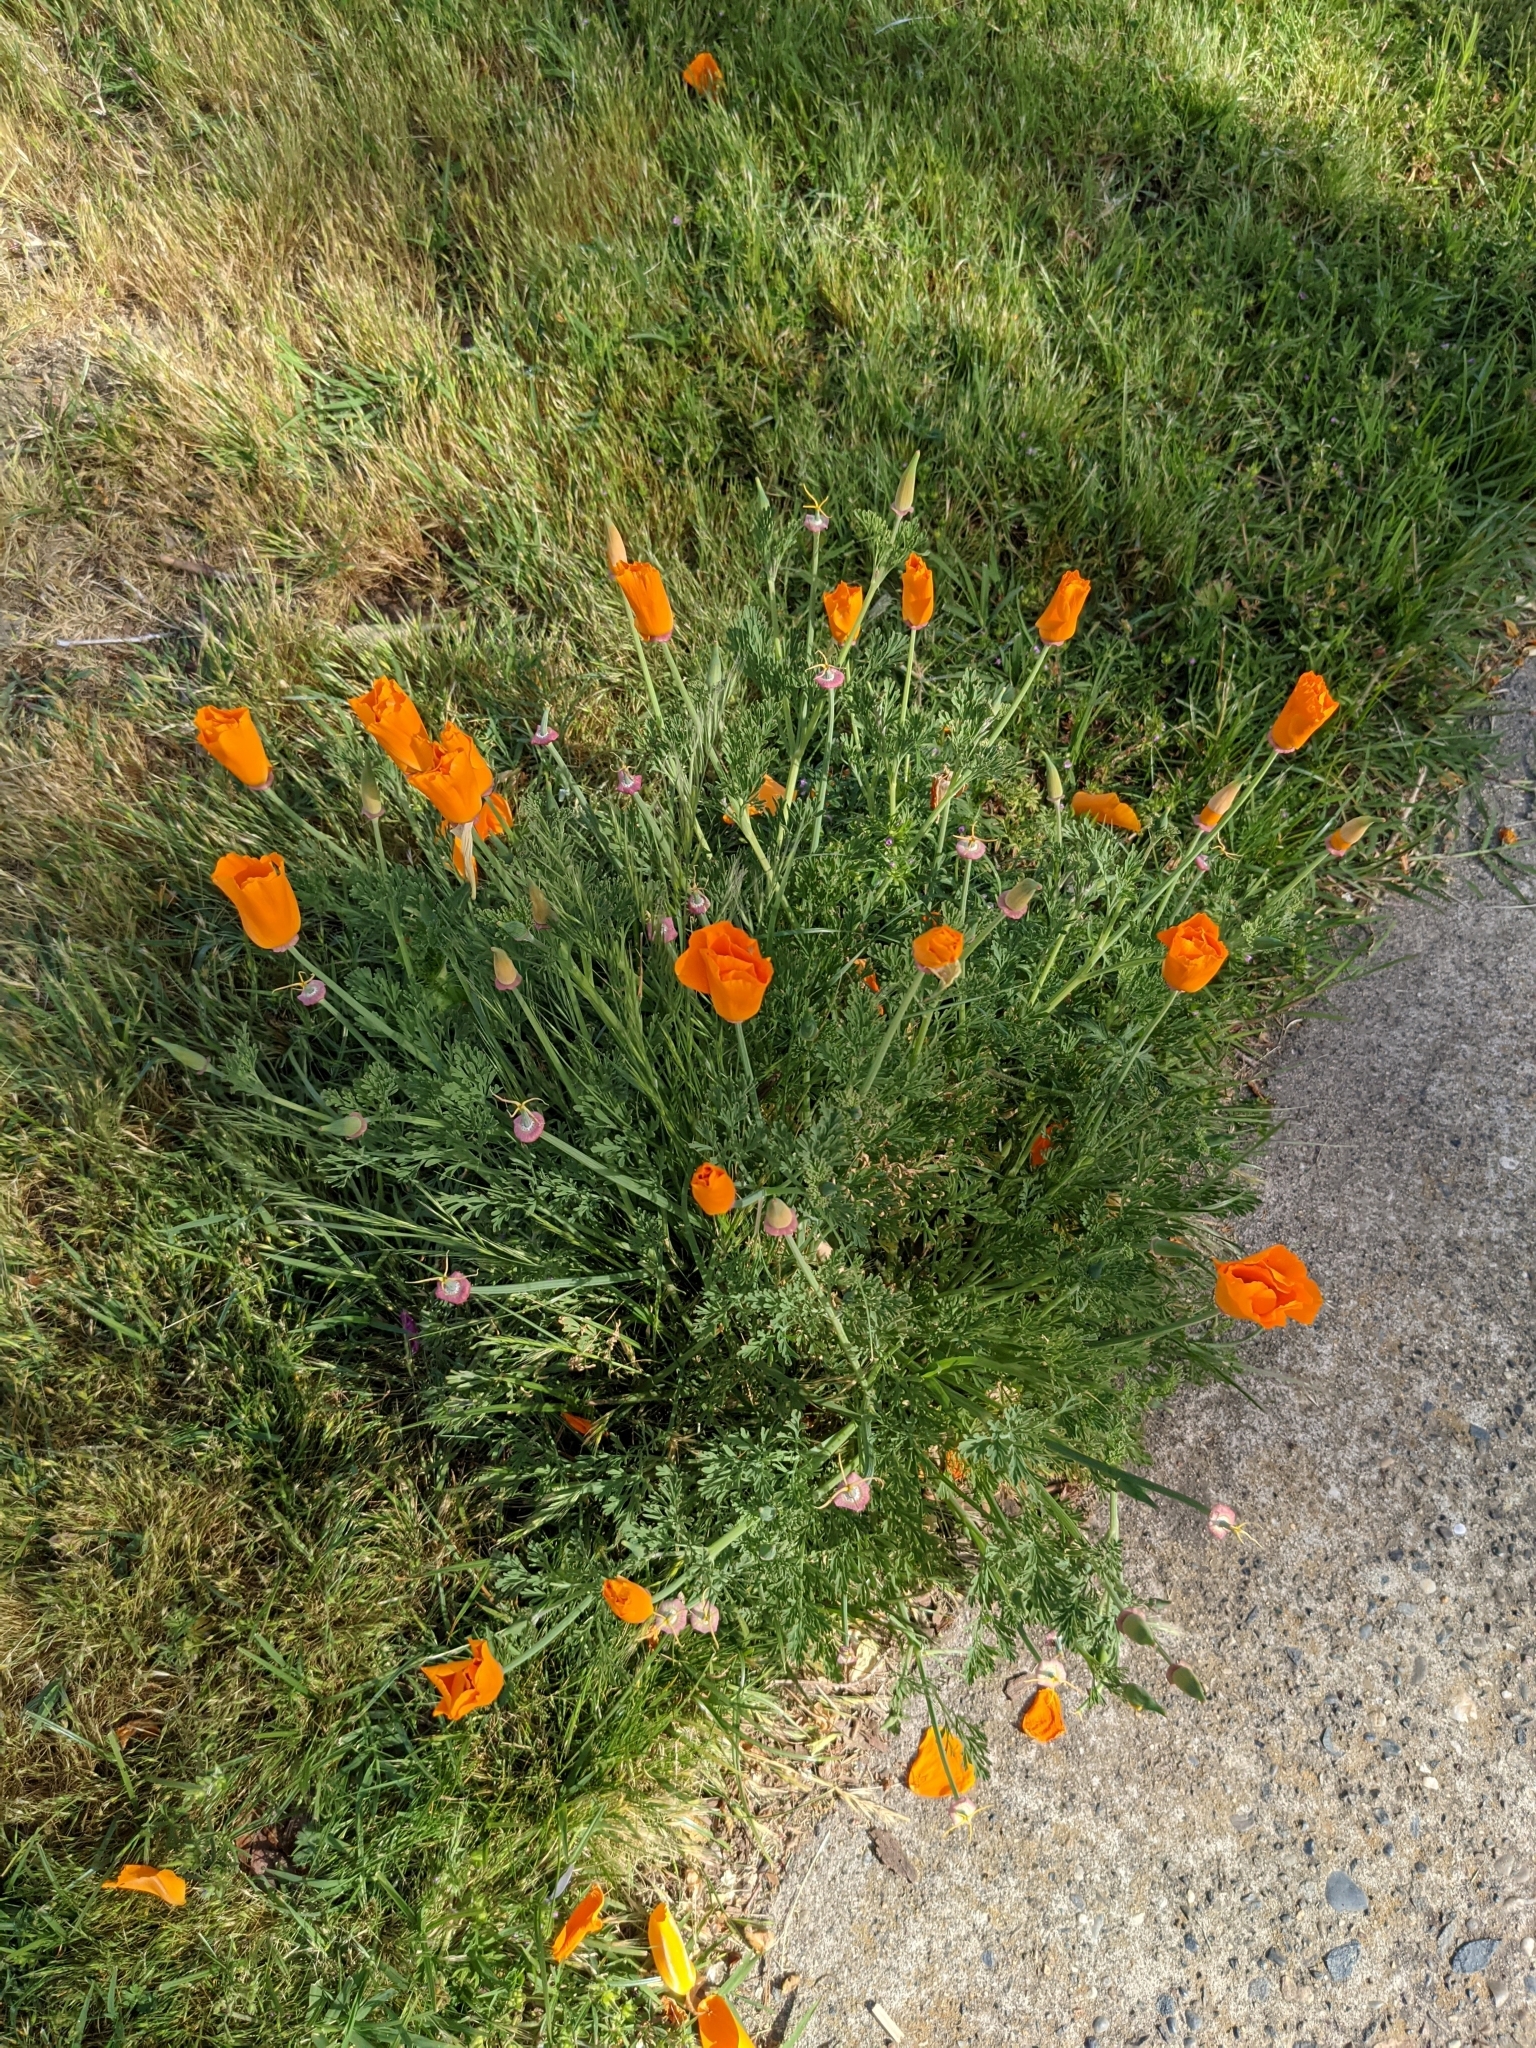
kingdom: Plantae
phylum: Tracheophyta
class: Magnoliopsida
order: Ranunculales
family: Papaveraceae
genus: Eschscholzia
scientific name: Eschscholzia californica
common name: California poppy
